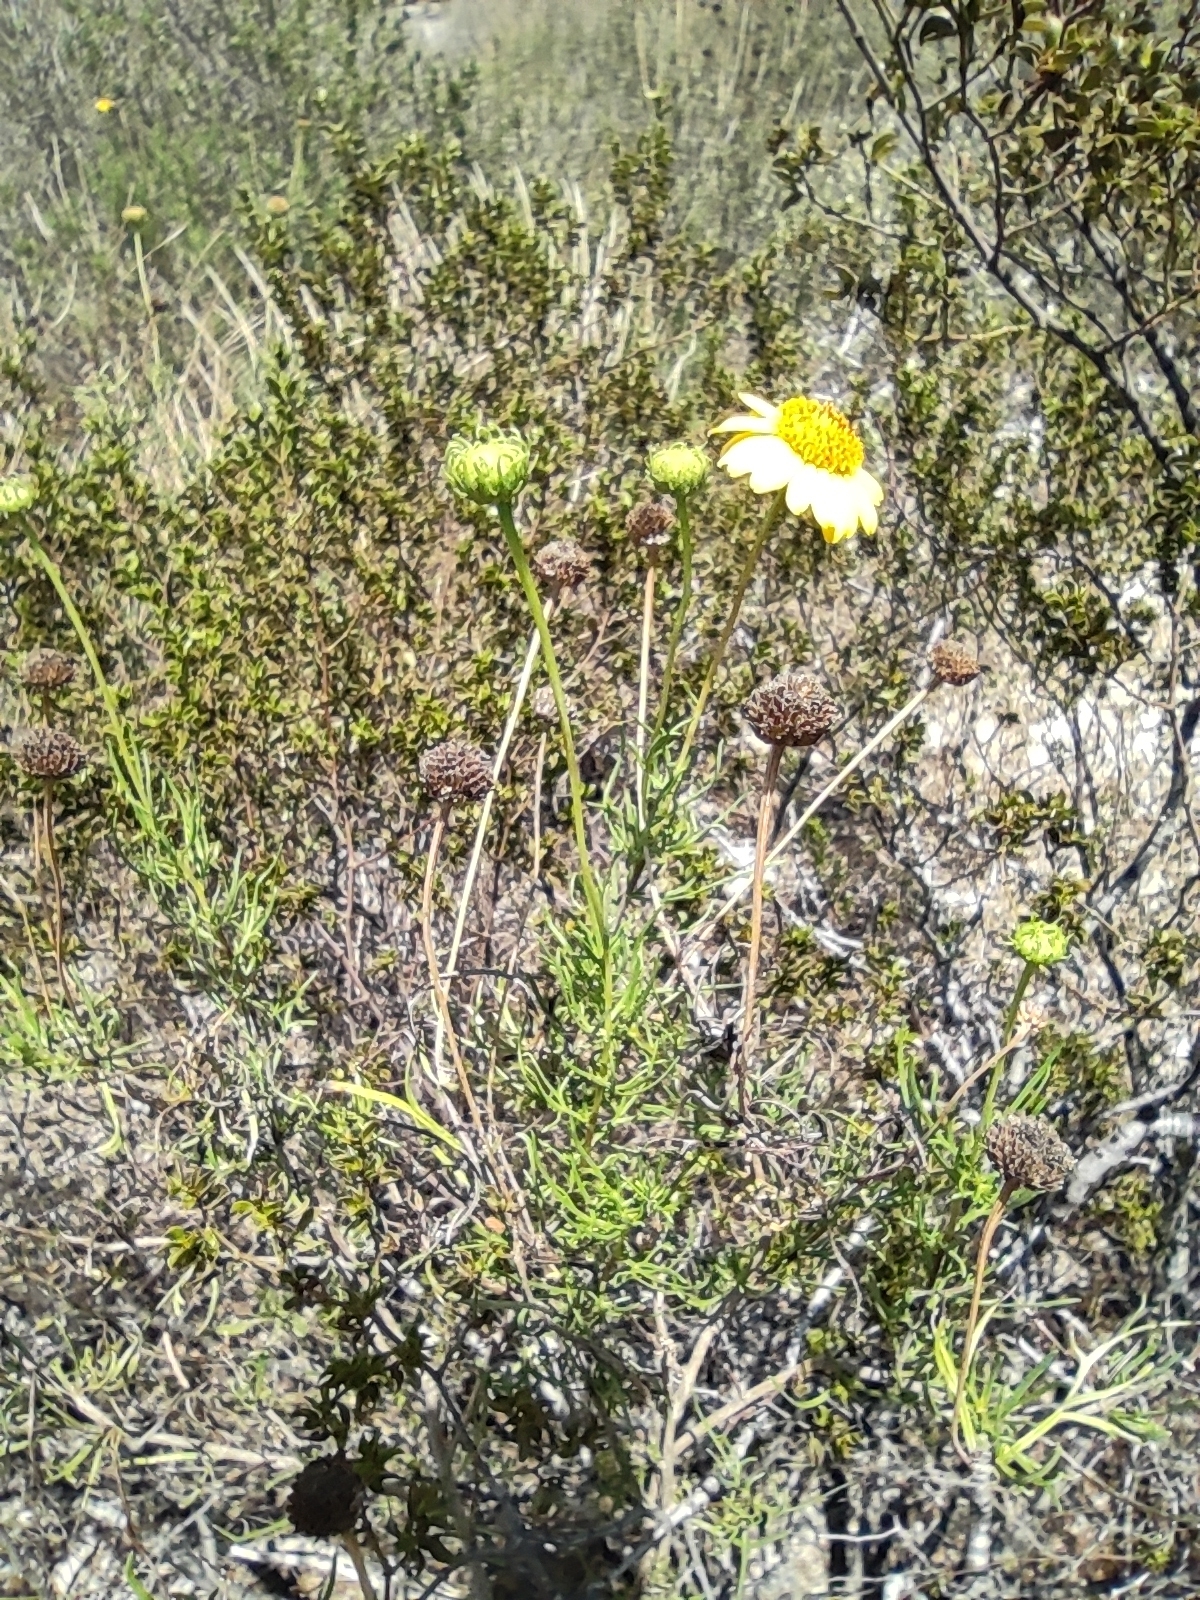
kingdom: Plantae
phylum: Tracheophyta
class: Magnoliopsida
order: Asterales
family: Asteraceae
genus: Sidneya
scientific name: Sidneya tenuifolia
